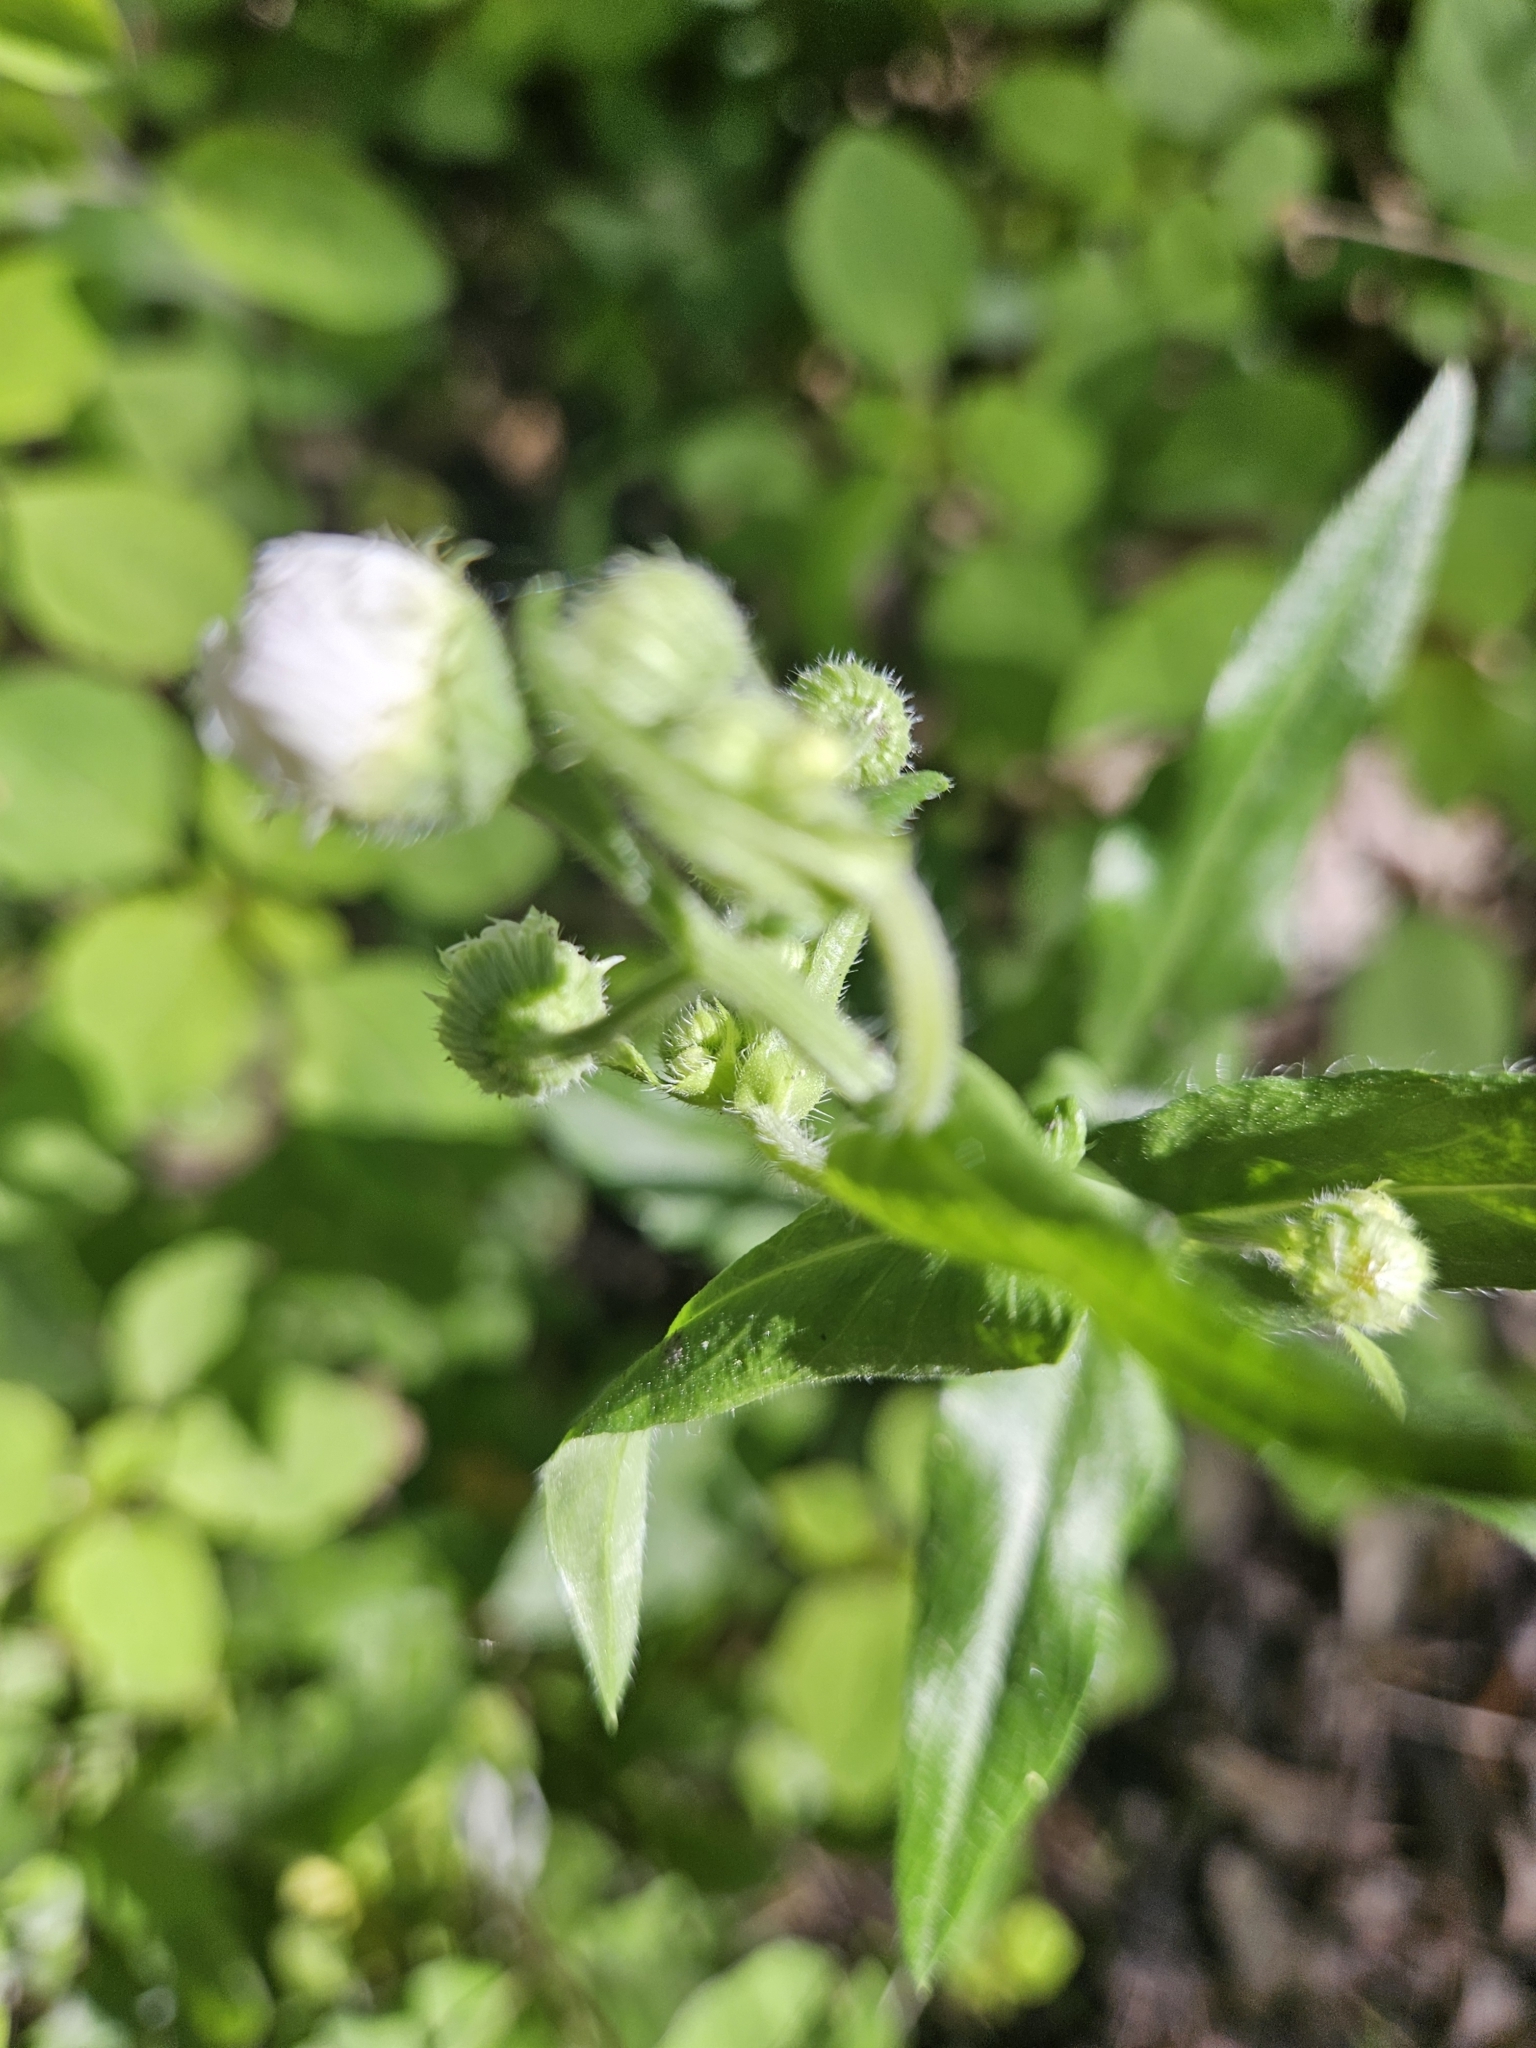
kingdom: Plantae
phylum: Tracheophyta
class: Magnoliopsida
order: Asterales
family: Asteraceae
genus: Erigeron
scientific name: Erigeron philadelphicus
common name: Robin's-plantain
